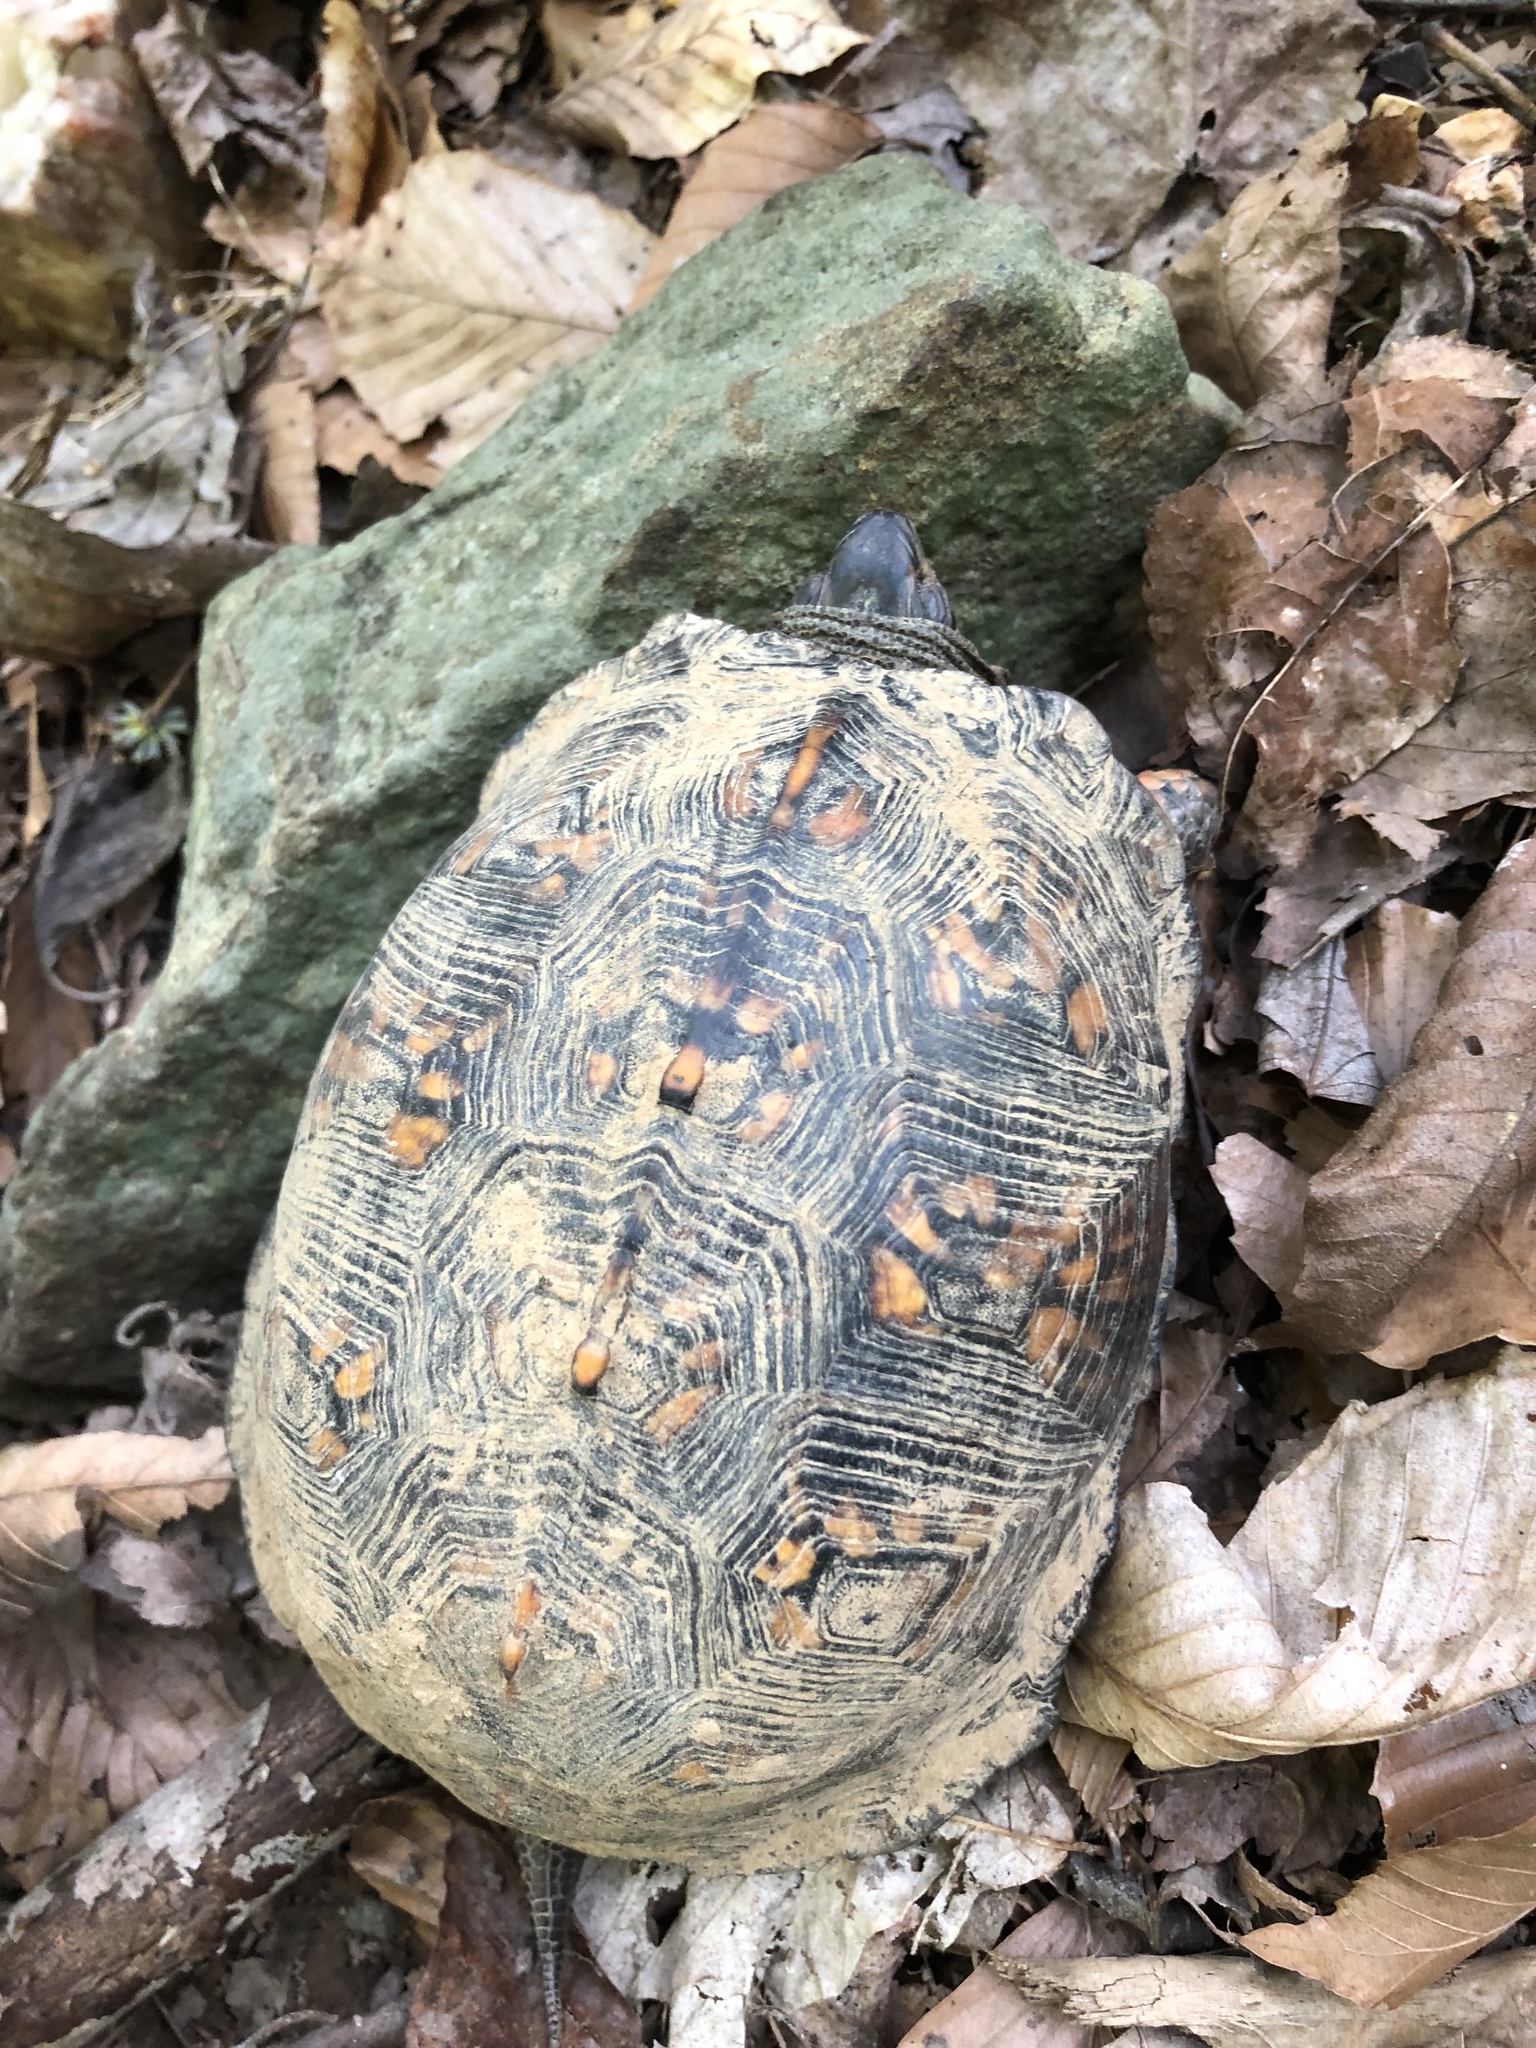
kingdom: Animalia
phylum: Chordata
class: Testudines
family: Emydidae
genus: Terrapene
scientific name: Terrapene carolina
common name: Common box turtle
